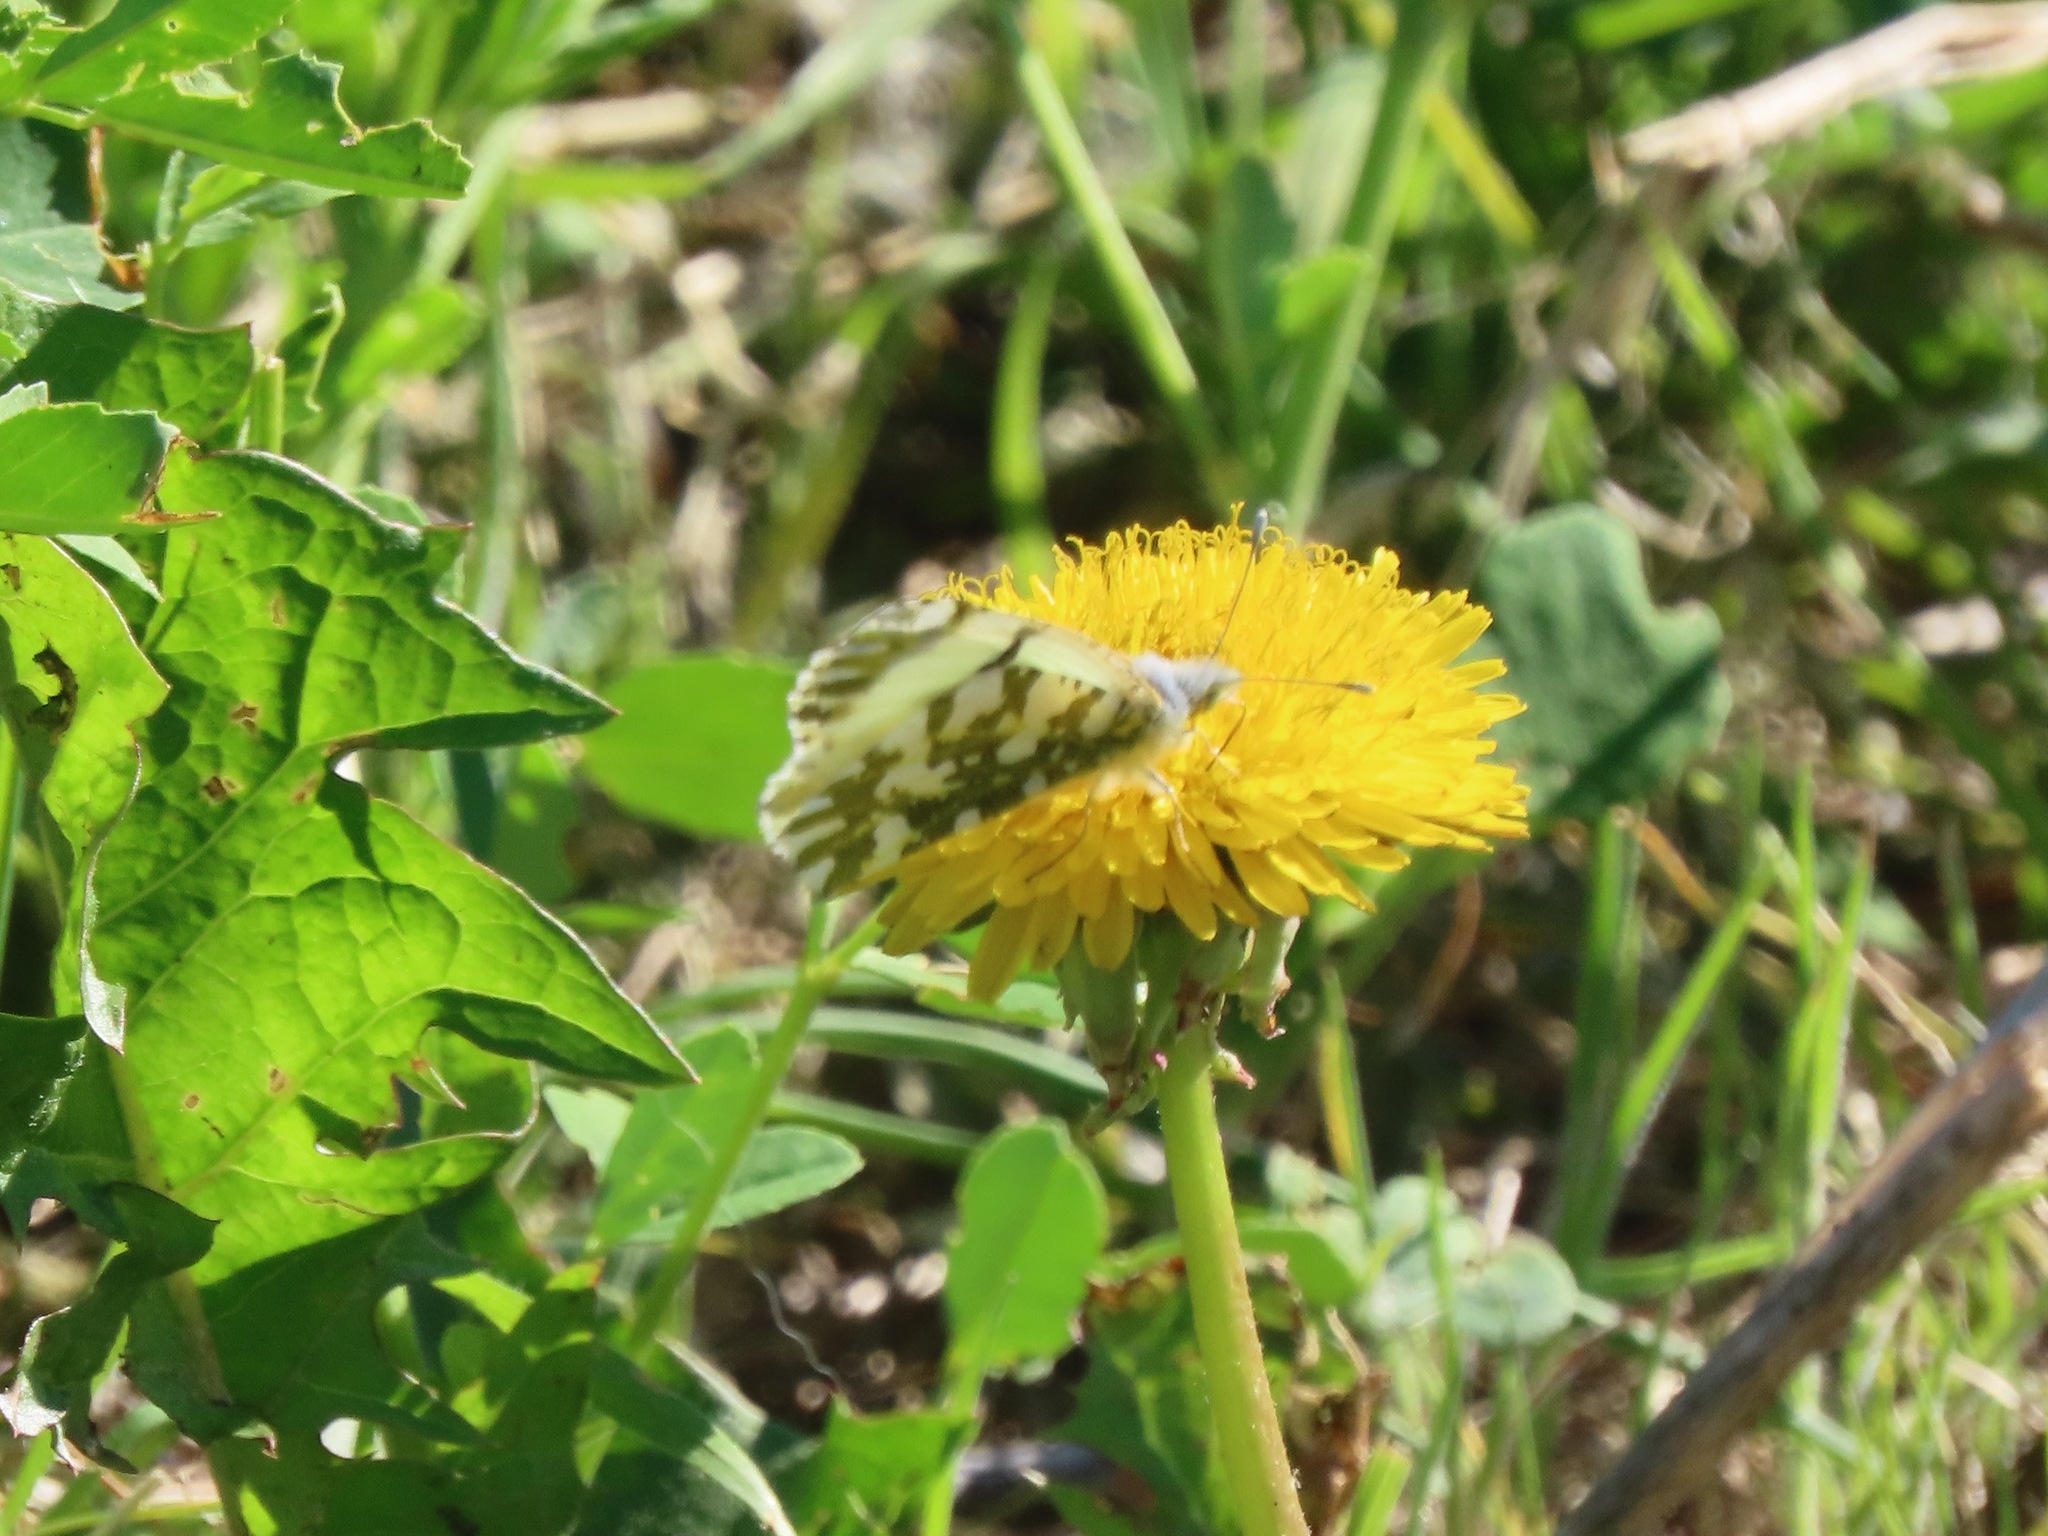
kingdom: Animalia
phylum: Arthropoda
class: Insecta
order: Lepidoptera
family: Pieridae
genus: Euchloe
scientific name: Euchloe ausonides
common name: Creamy marblewing
